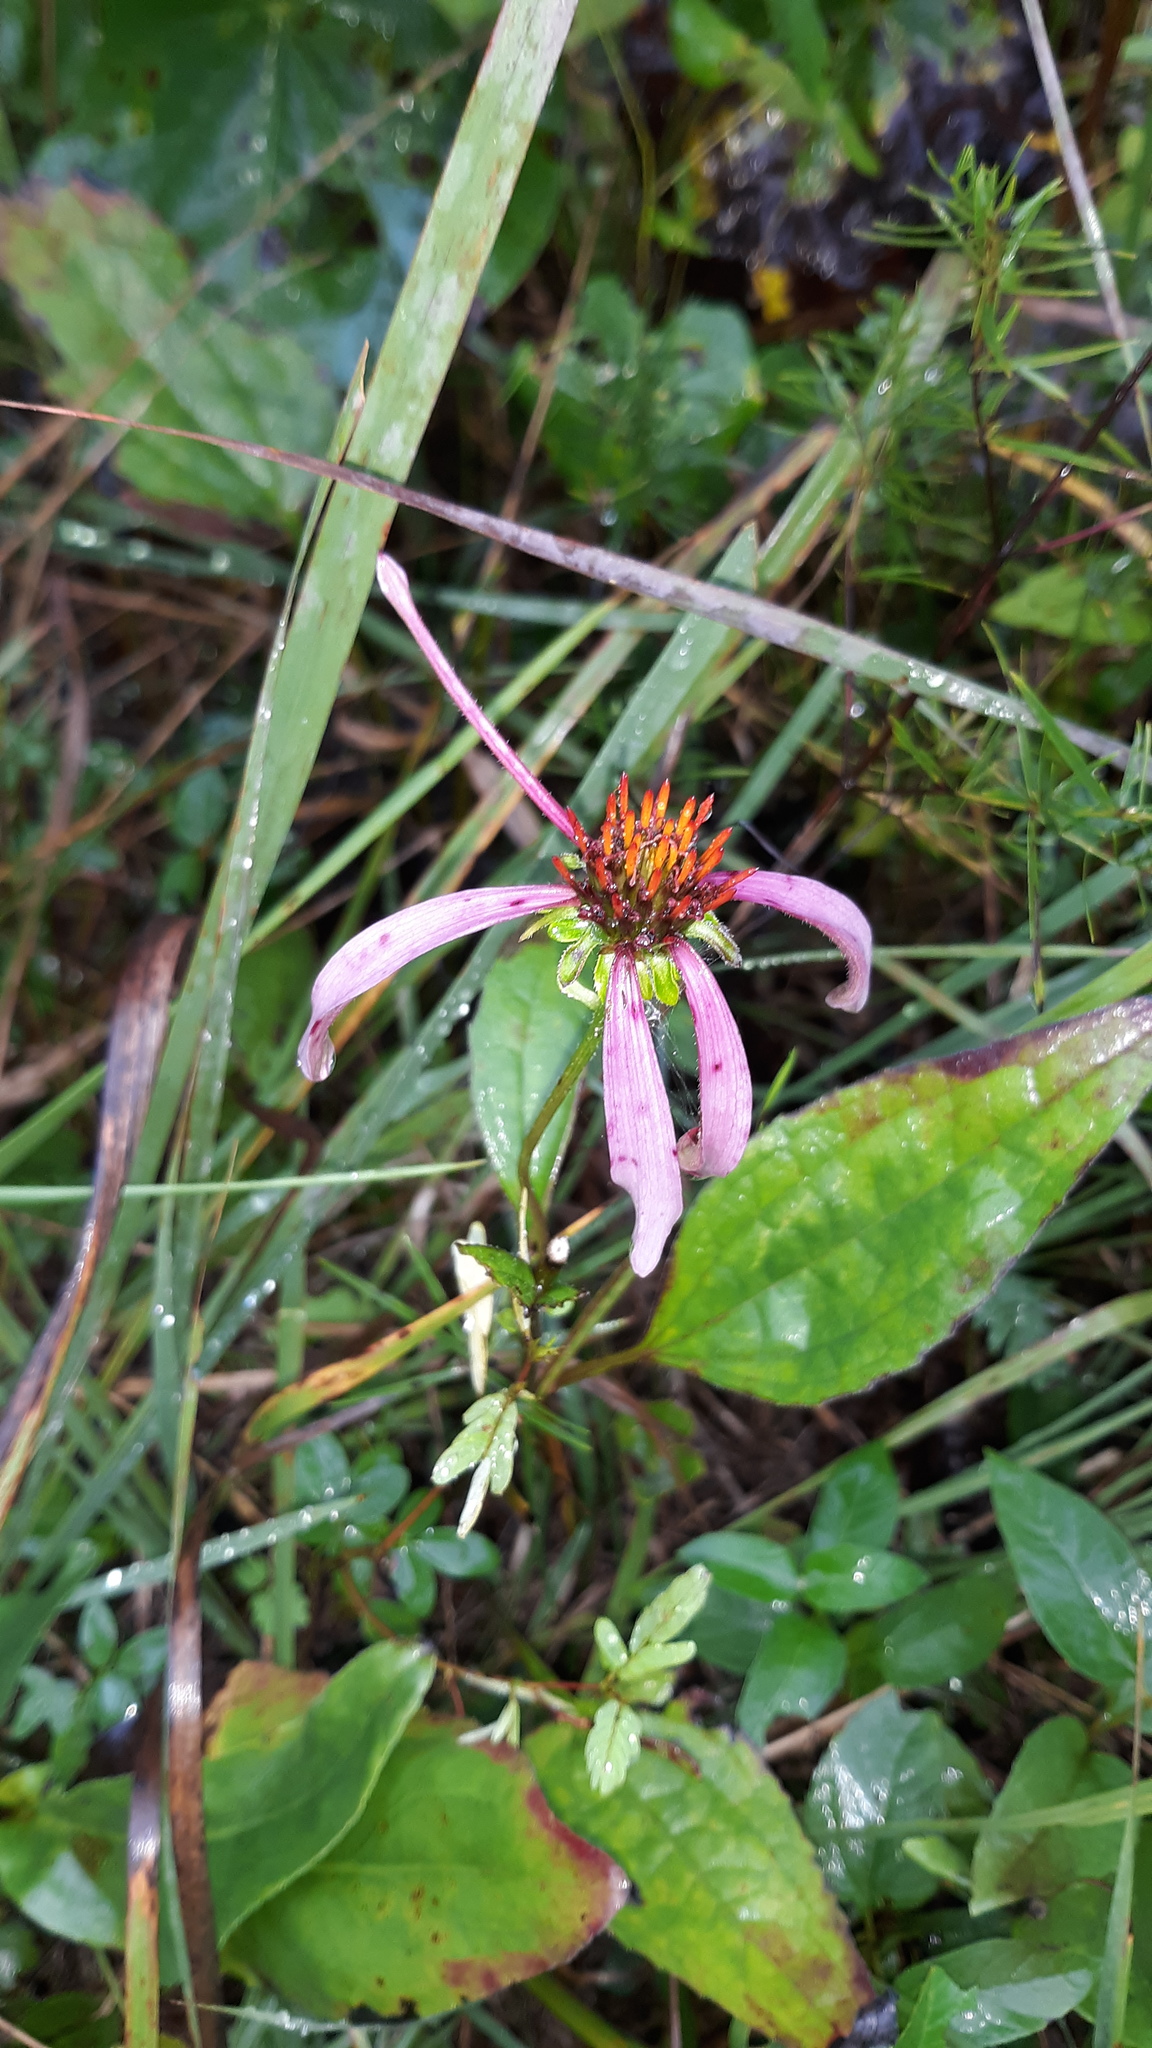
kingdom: Plantae
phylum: Tracheophyta
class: Magnoliopsida
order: Asterales
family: Asteraceae
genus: Echinacea
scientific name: Echinacea purpurea
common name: Broad-leaved purple coneflower
